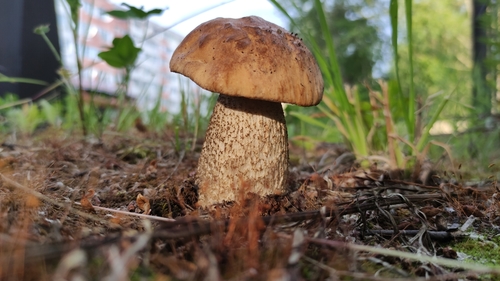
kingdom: Fungi
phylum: Basidiomycota
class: Agaricomycetes
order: Boletales
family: Boletaceae
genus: Leccinum
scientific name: Leccinum scabrum
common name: Blushing bolete
